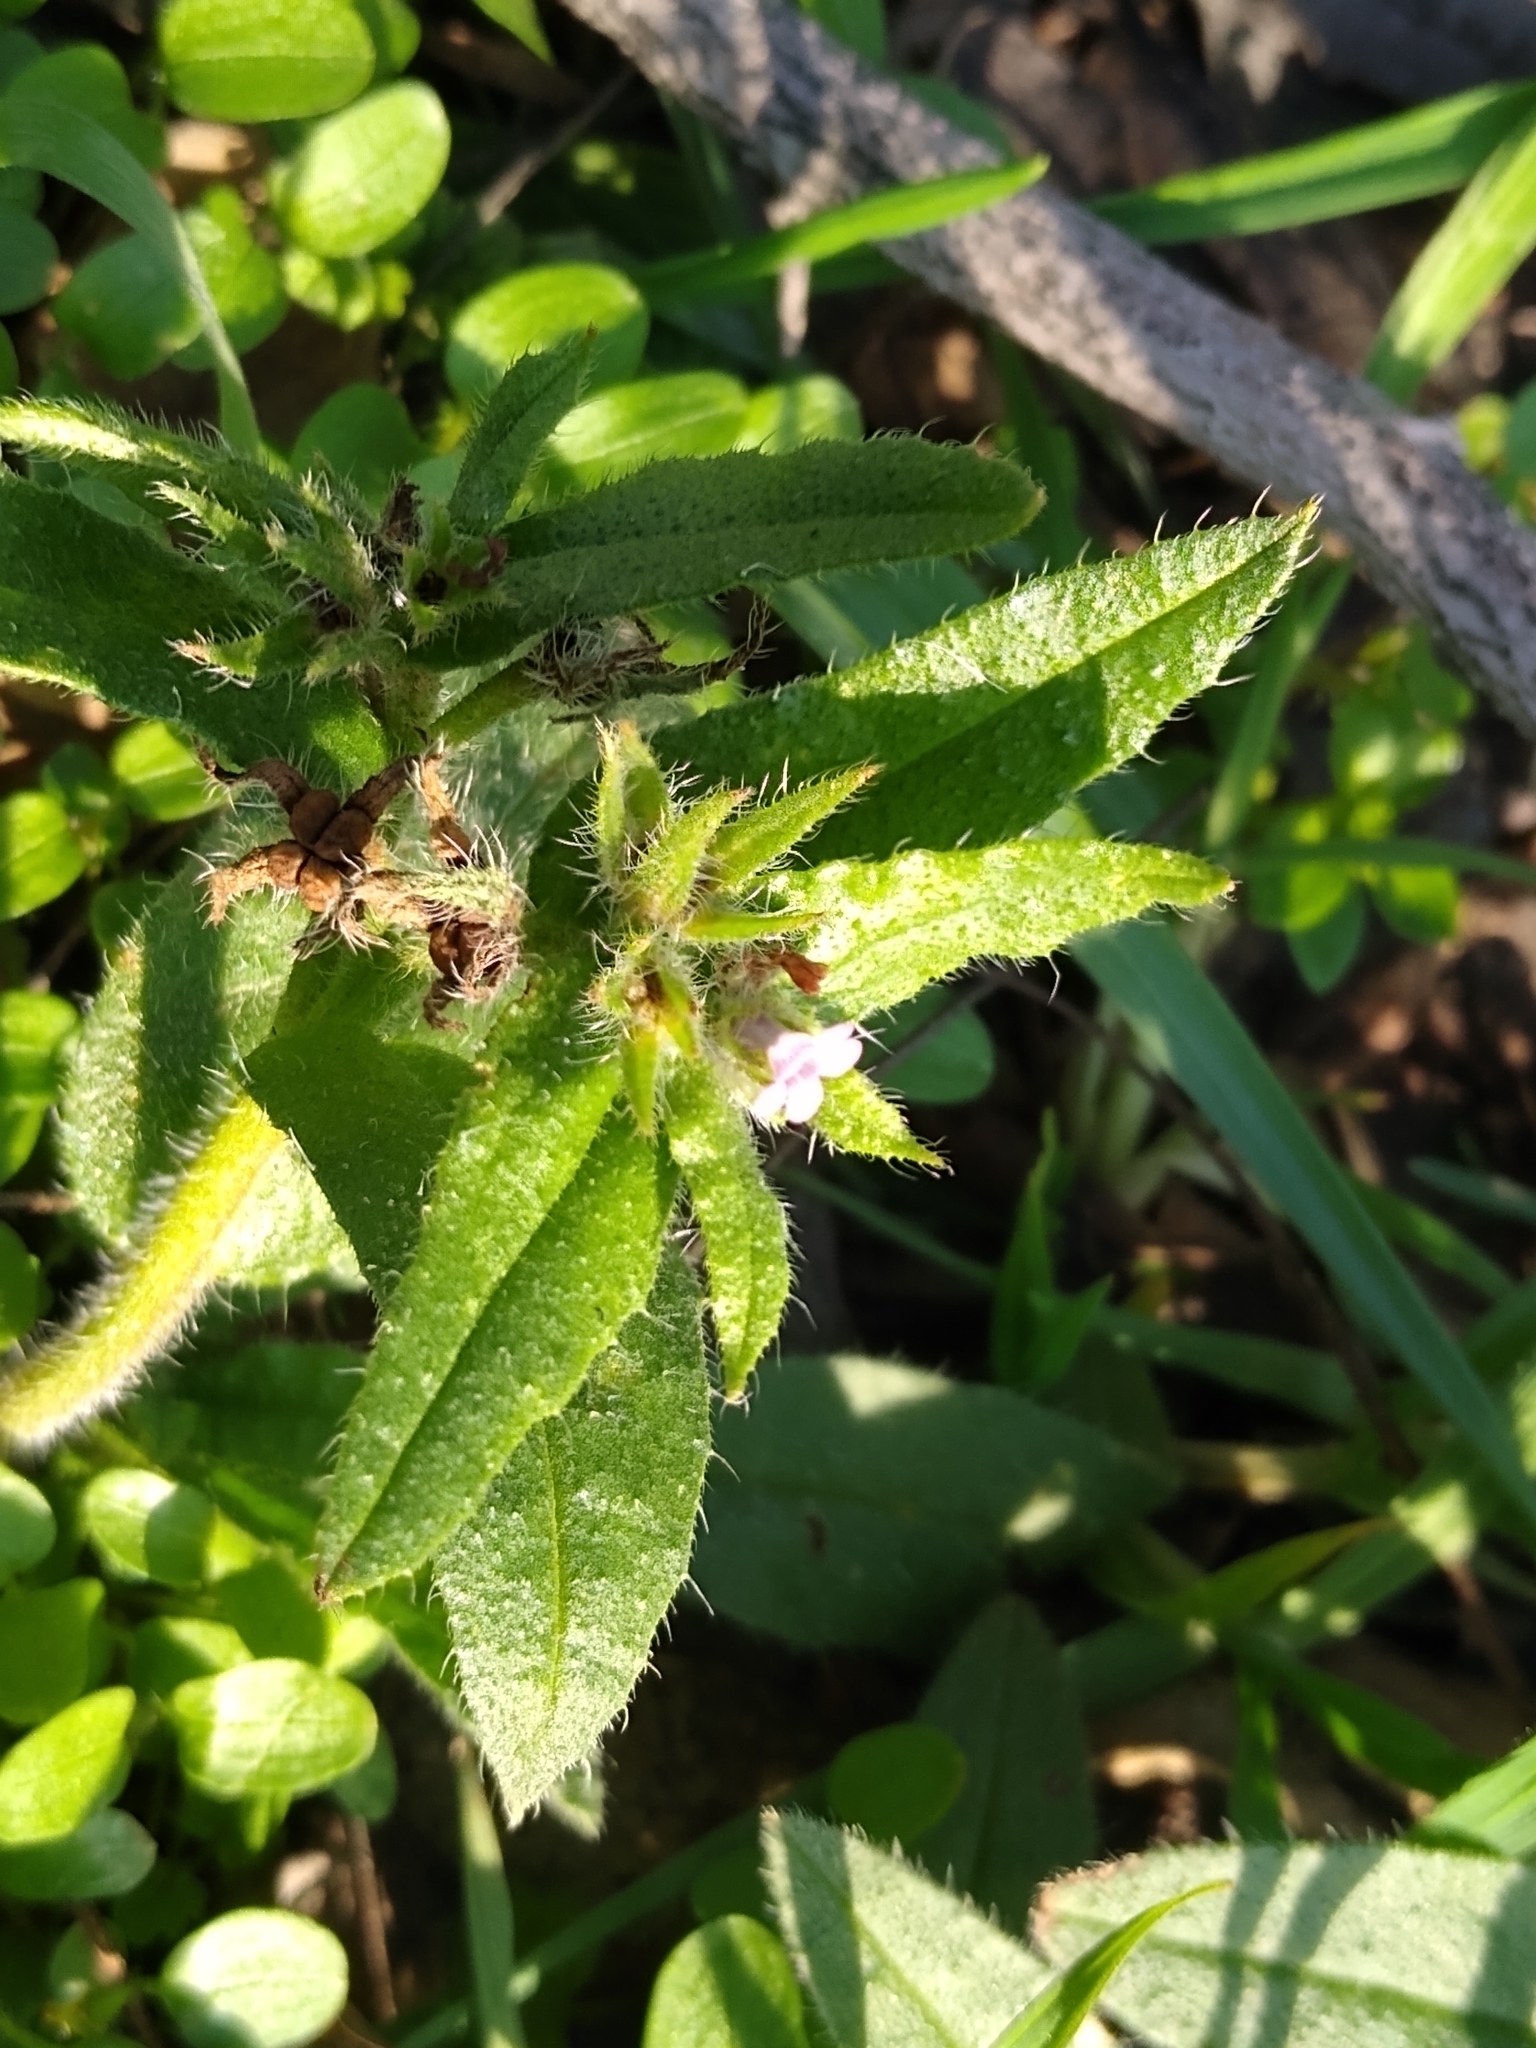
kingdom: Plantae
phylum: Tracheophyta
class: Magnoliopsida
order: Boraginales
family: Boraginaceae
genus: Buglossoides
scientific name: Buglossoides arvensis
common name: Corn gromwell
